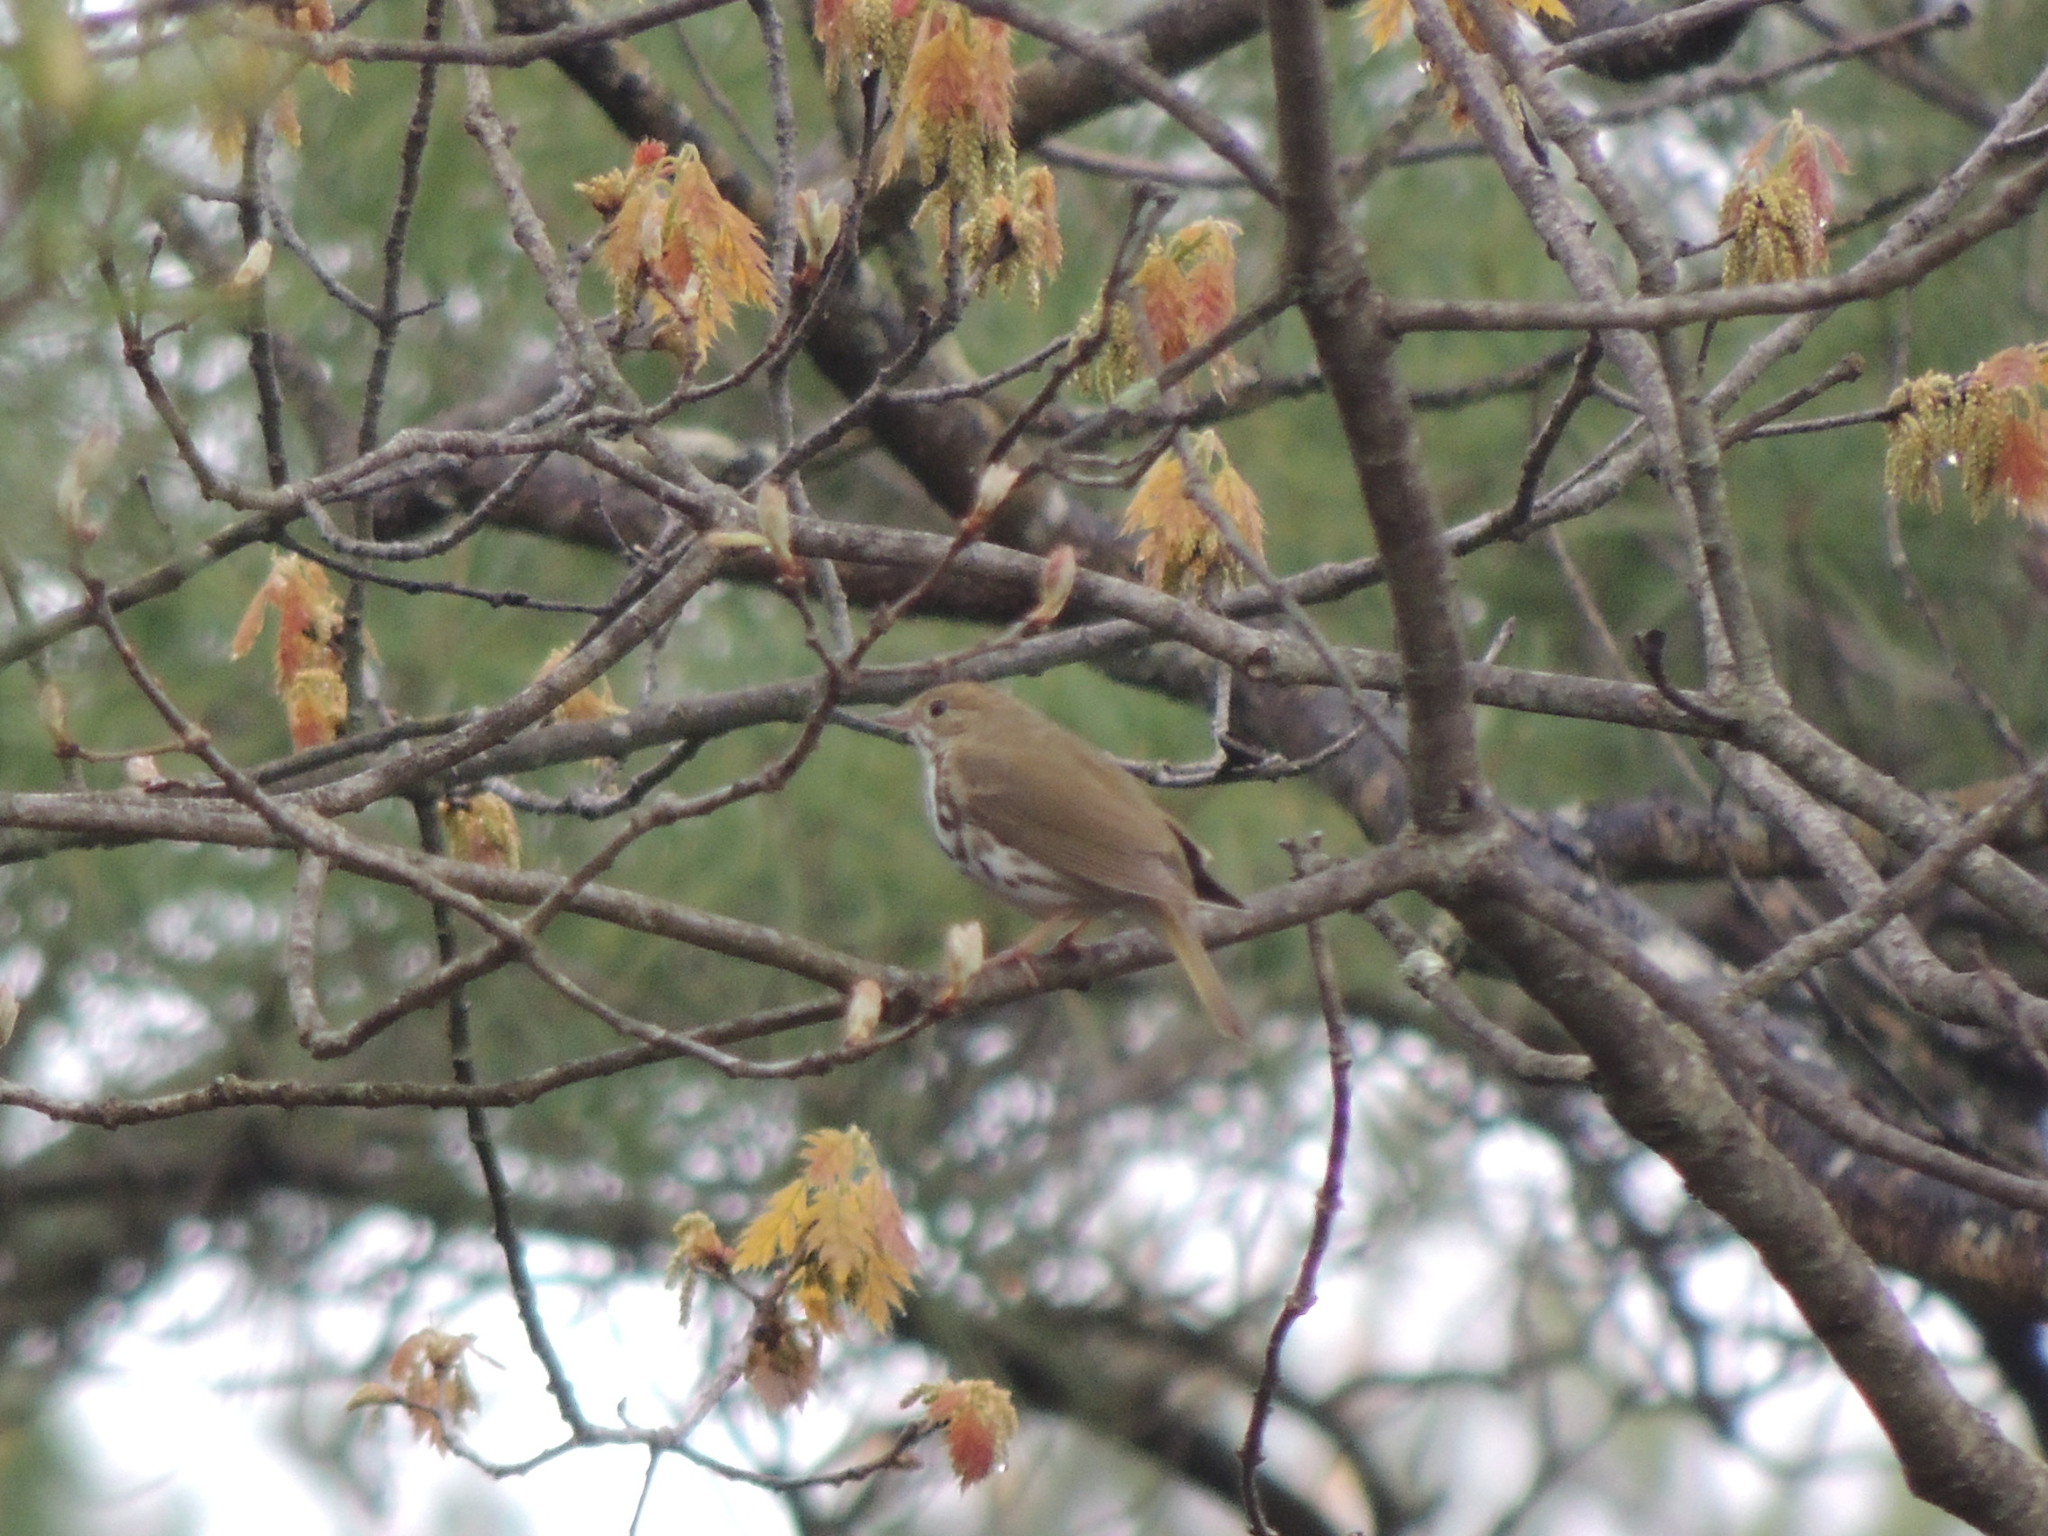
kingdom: Animalia
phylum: Chordata
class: Aves
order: Passeriformes
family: Parulidae
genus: Seiurus
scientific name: Seiurus aurocapilla
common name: Ovenbird
